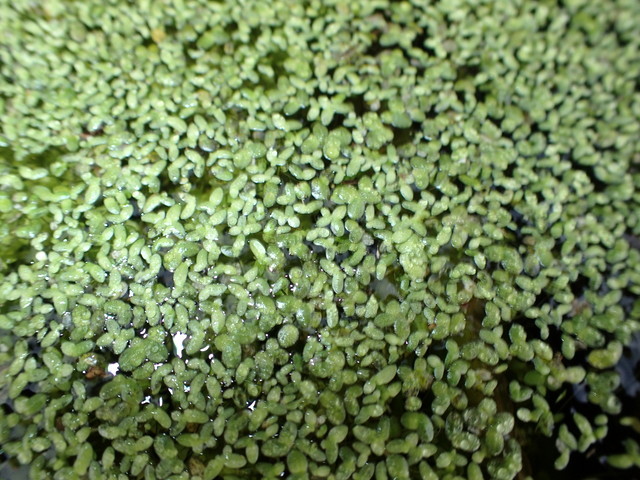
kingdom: Plantae
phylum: Tracheophyta
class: Liliopsida
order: Alismatales
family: Araceae
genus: Lemna
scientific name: Lemna minor
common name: Common duckweed
